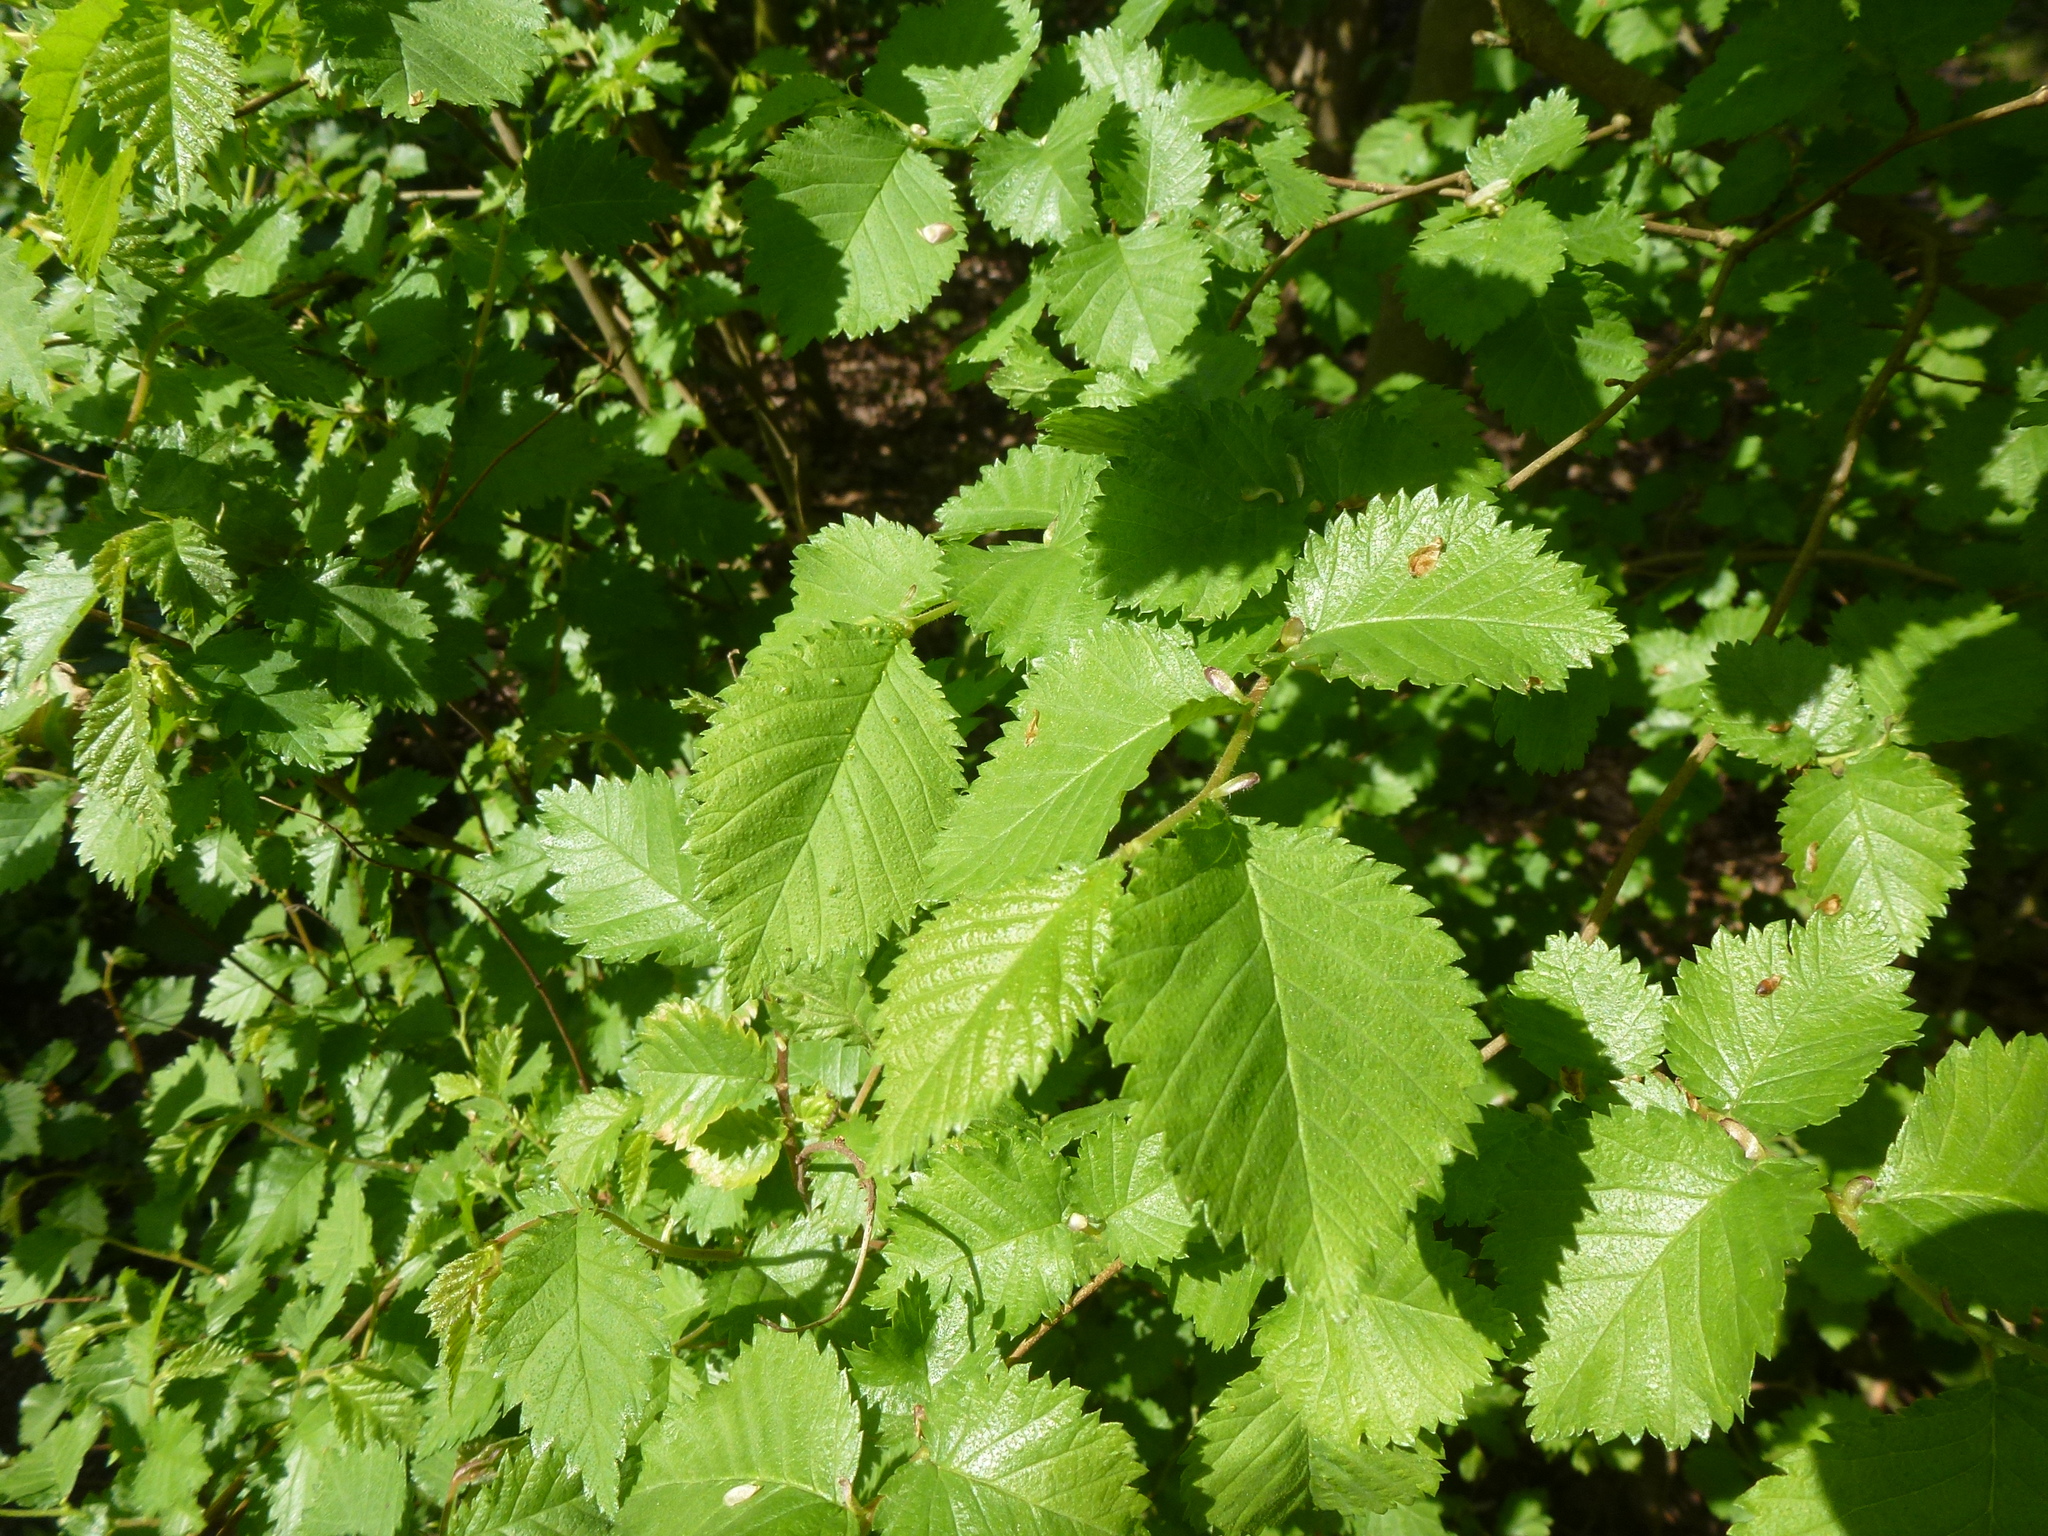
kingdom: Plantae
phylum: Tracheophyta
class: Magnoliopsida
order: Rosales
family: Ulmaceae
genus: Ulmus
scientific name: Ulmus minor
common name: Small-leaved elm
